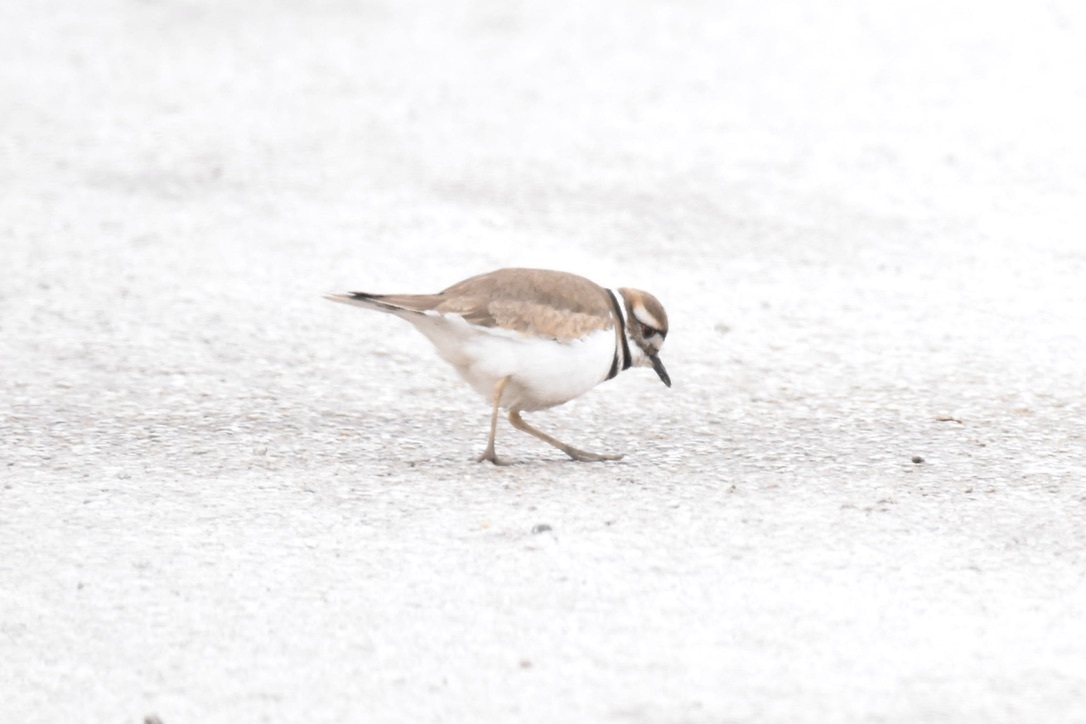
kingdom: Animalia
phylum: Chordata
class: Aves
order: Charadriiformes
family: Charadriidae
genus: Charadrius
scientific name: Charadrius vociferus
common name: Killdeer
